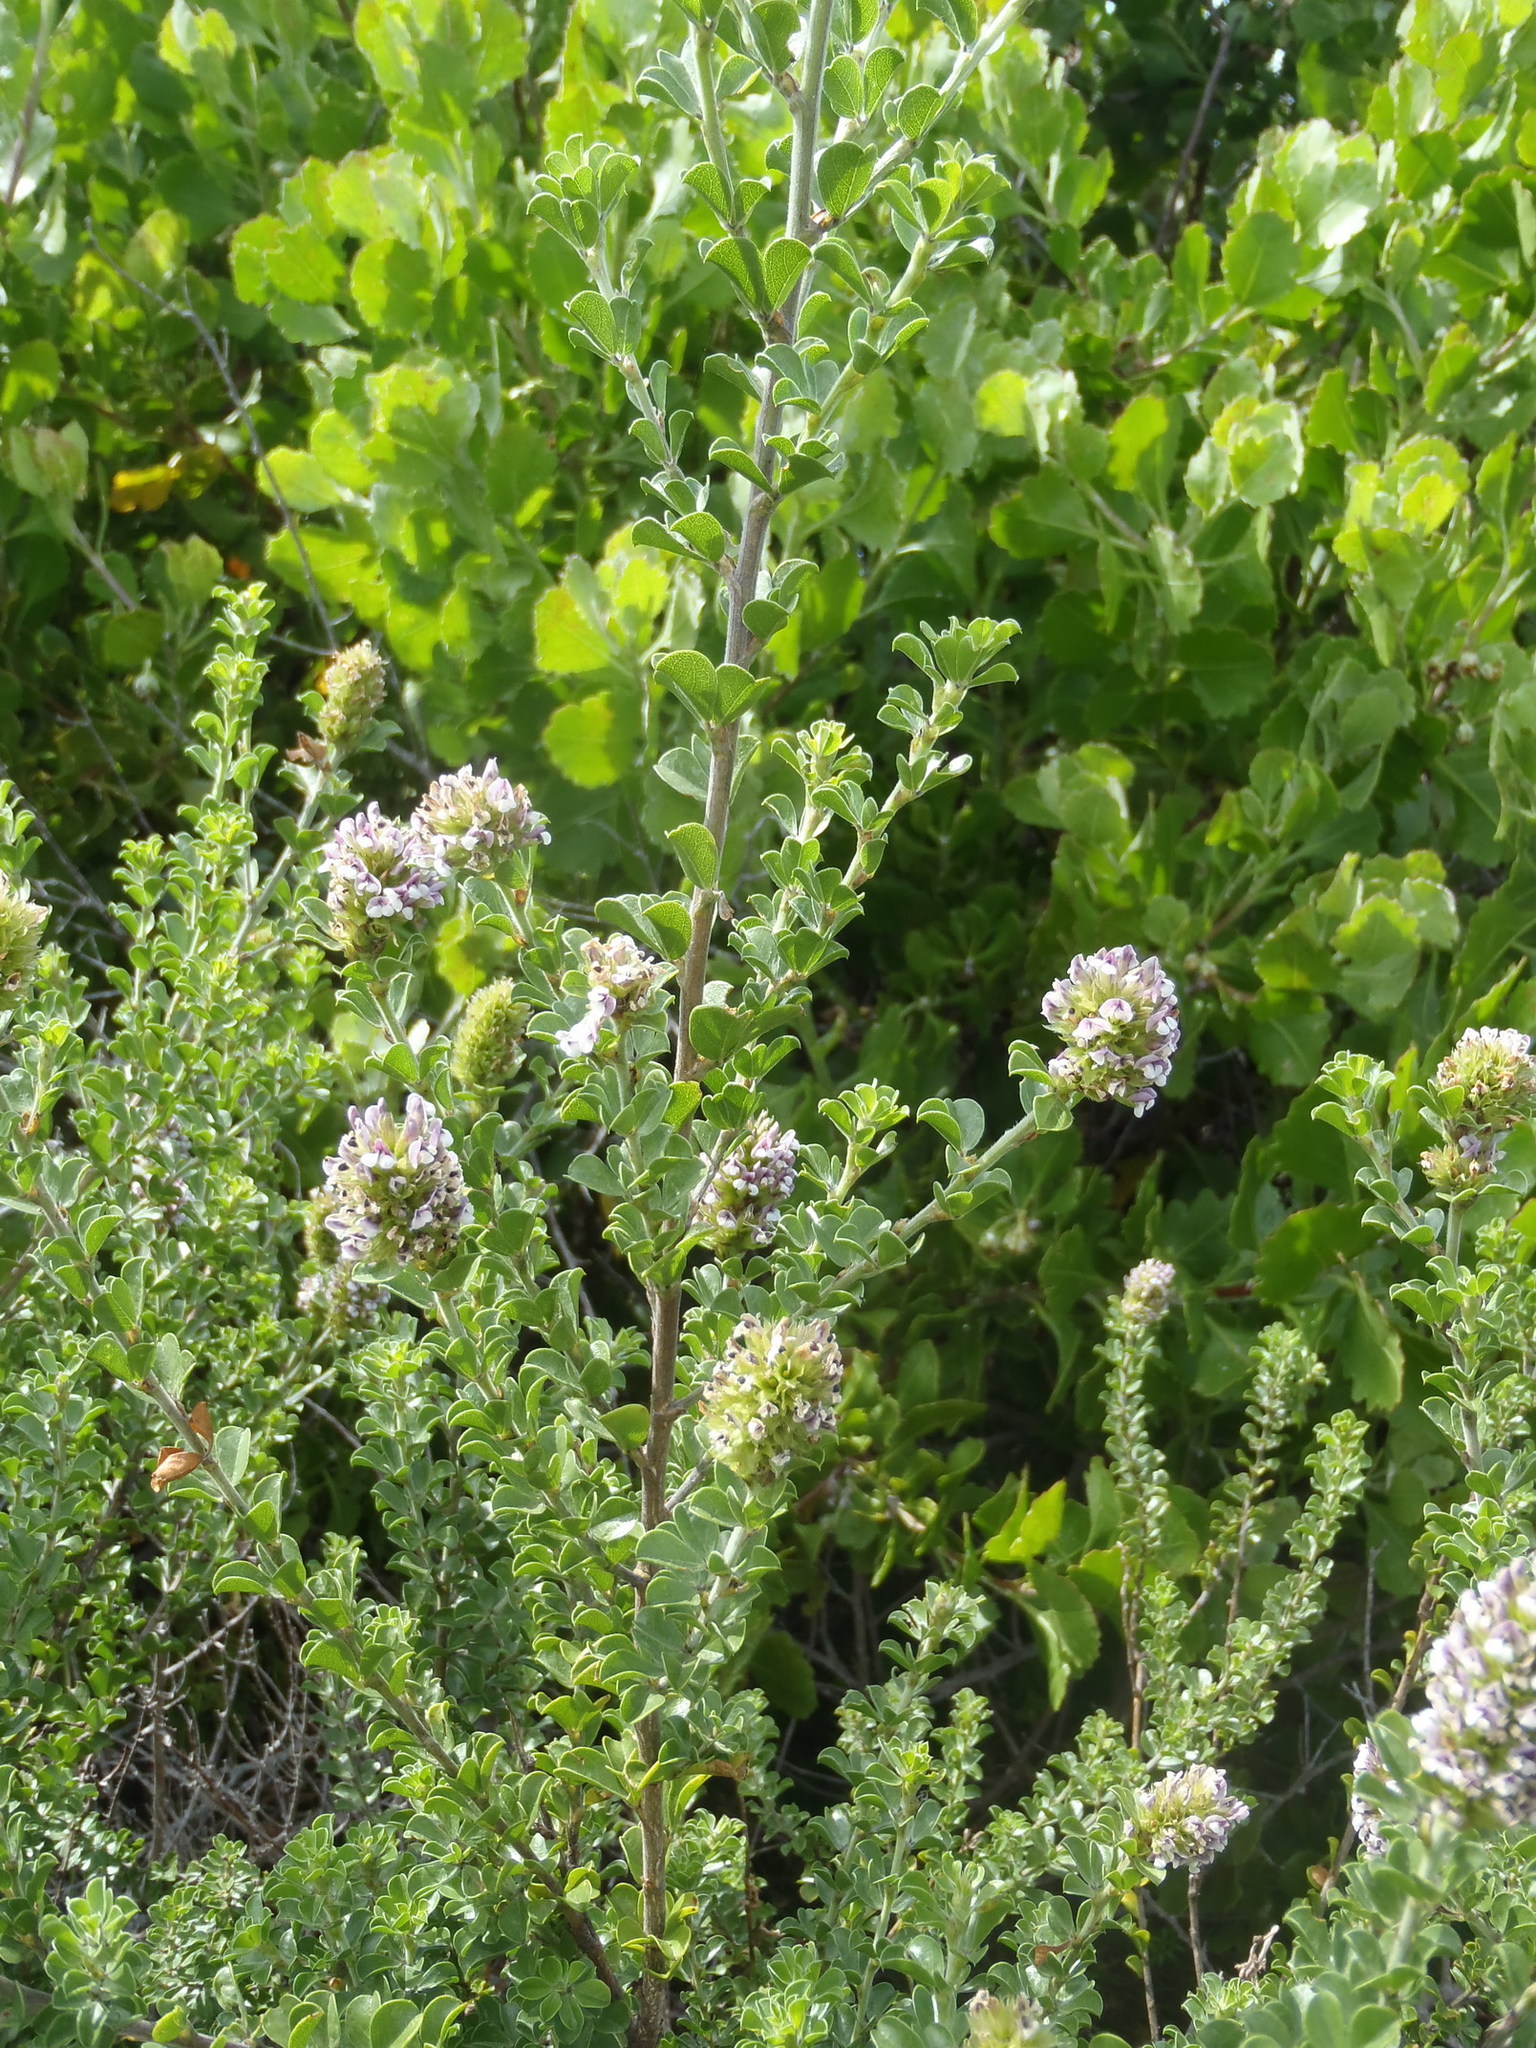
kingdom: Plantae
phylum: Tracheophyta
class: Magnoliopsida
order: Fabales
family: Fabaceae
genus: Psoralea
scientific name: Psoralea stachyera
